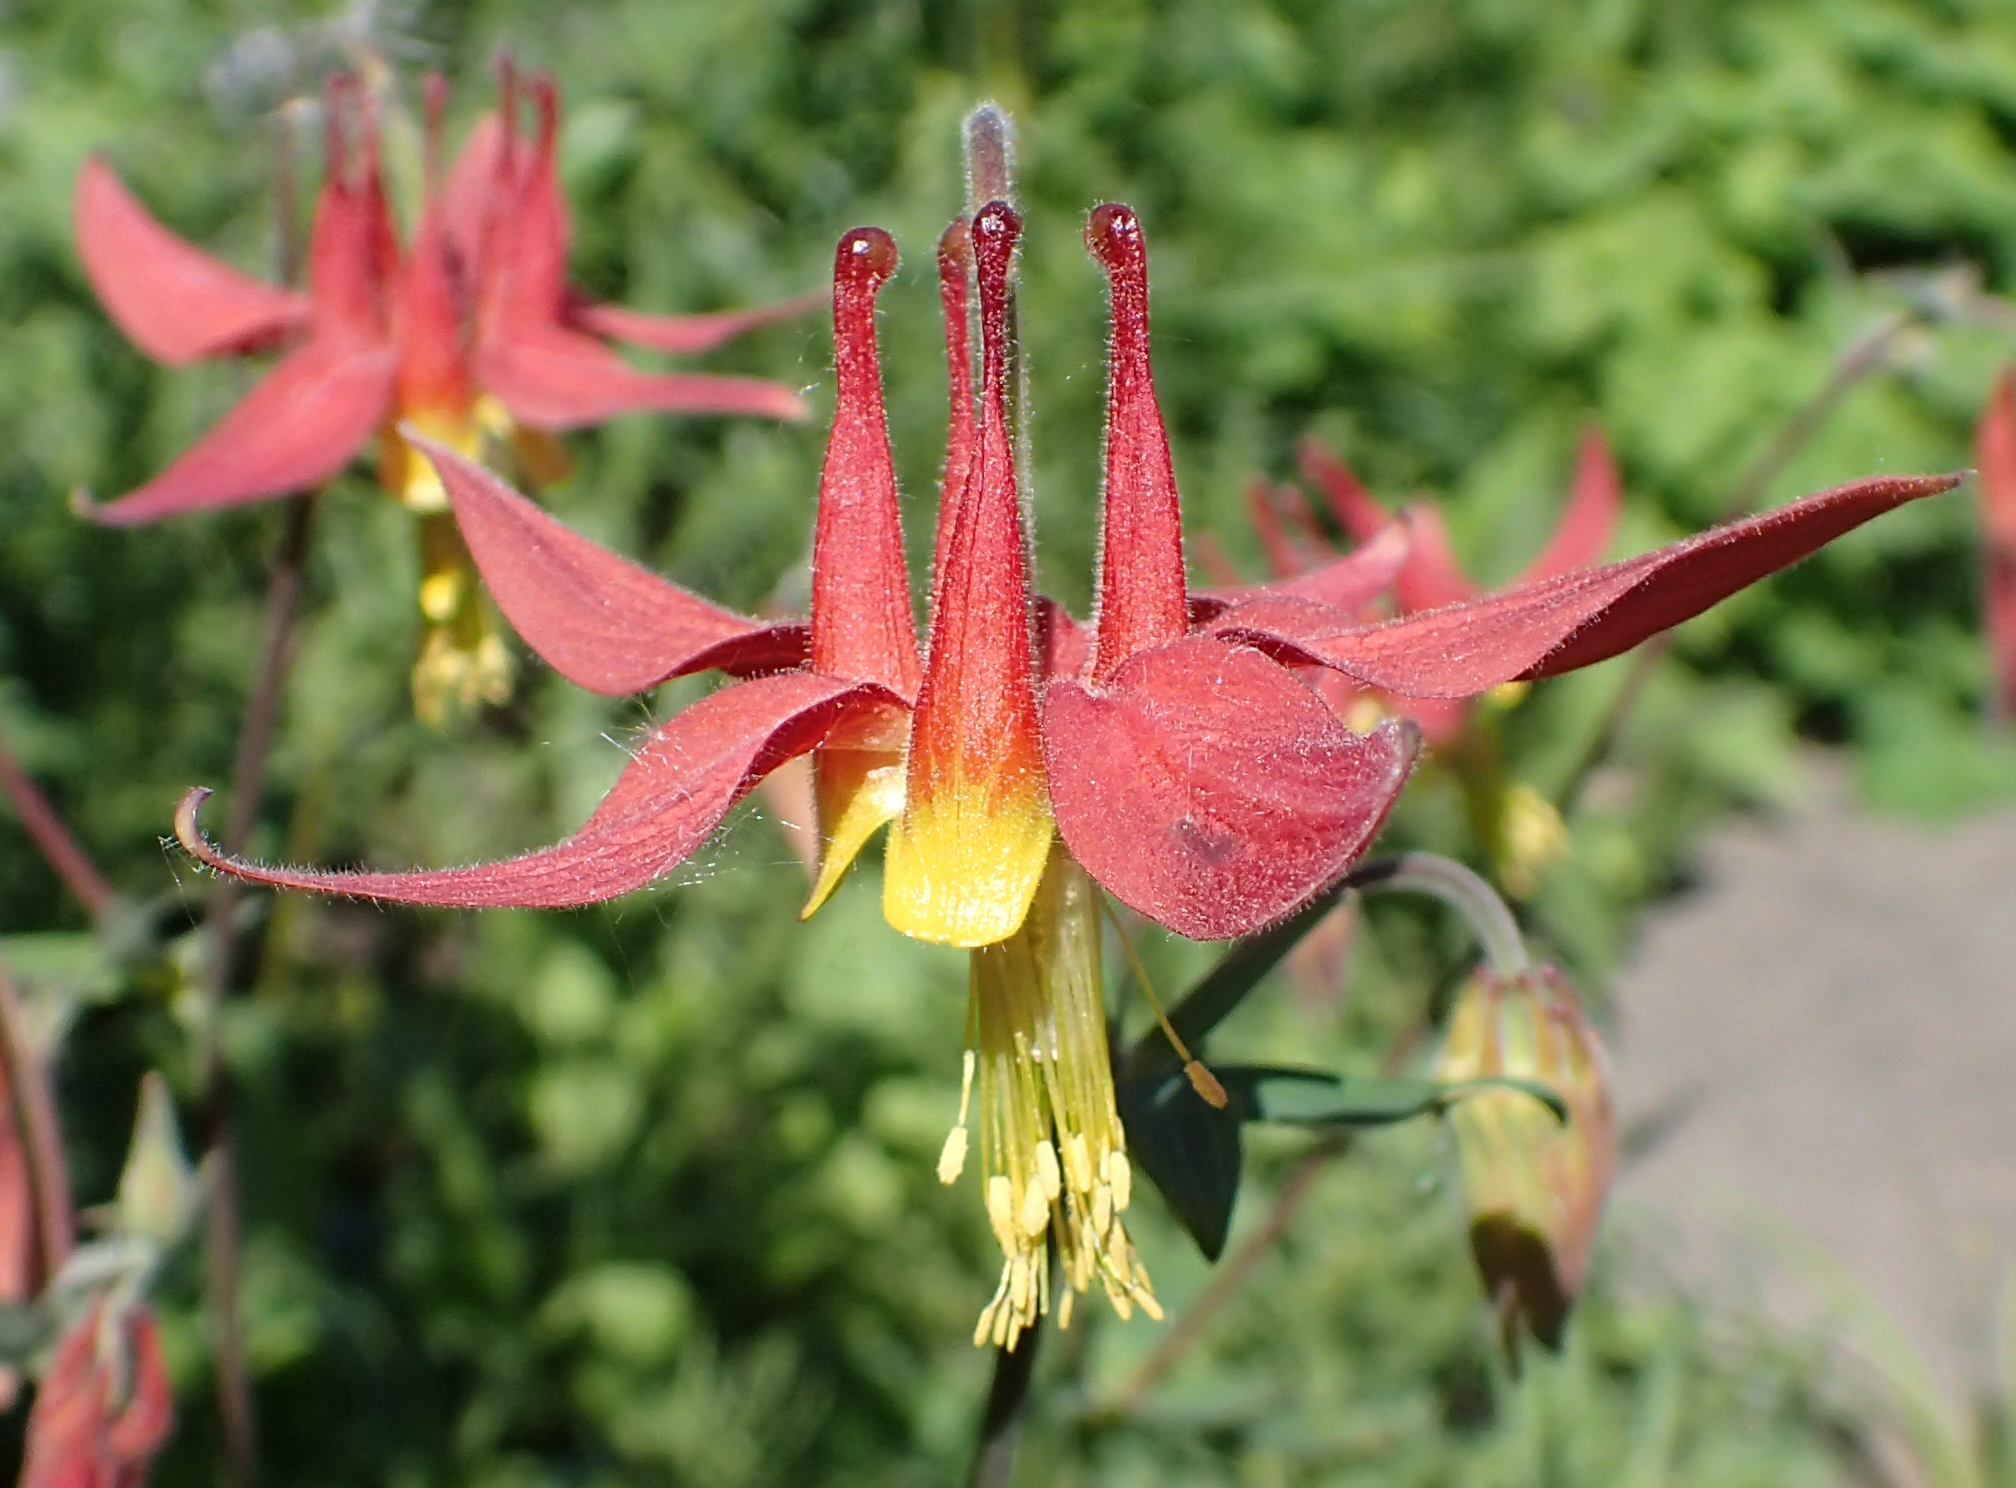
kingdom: Plantae
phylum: Tracheophyta
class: Magnoliopsida
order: Ranunculales
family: Ranunculaceae
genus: Aquilegia
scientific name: Aquilegia formosa
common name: Sitka columbine
